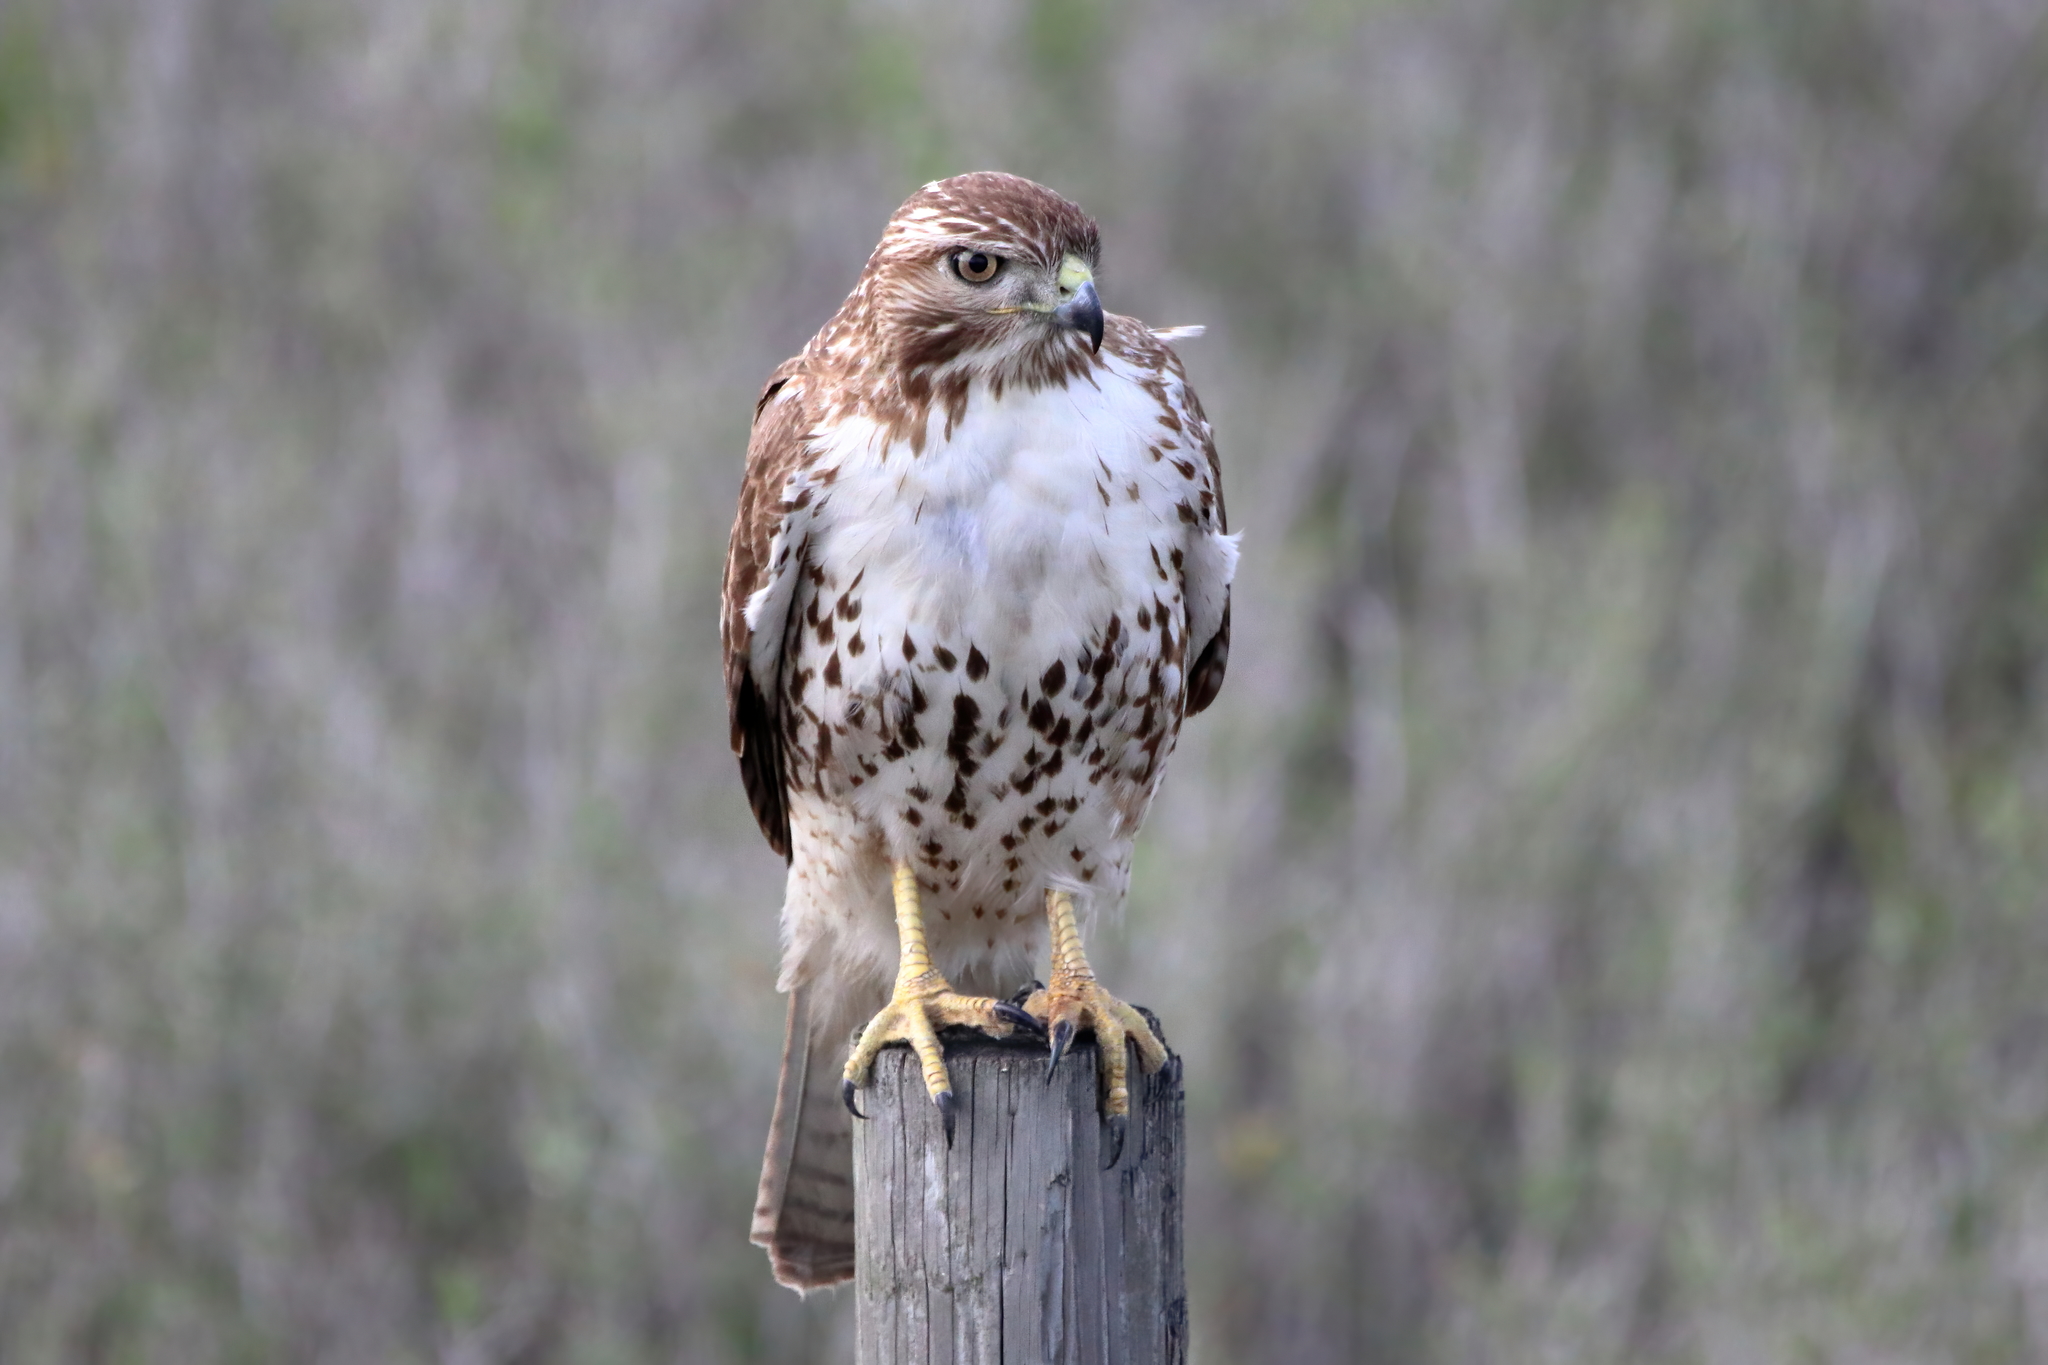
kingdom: Animalia
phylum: Chordata
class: Aves
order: Accipitriformes
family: Accipitridae
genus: Buteo
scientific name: Buteo jamaicensis
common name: Red-tailed hawk
